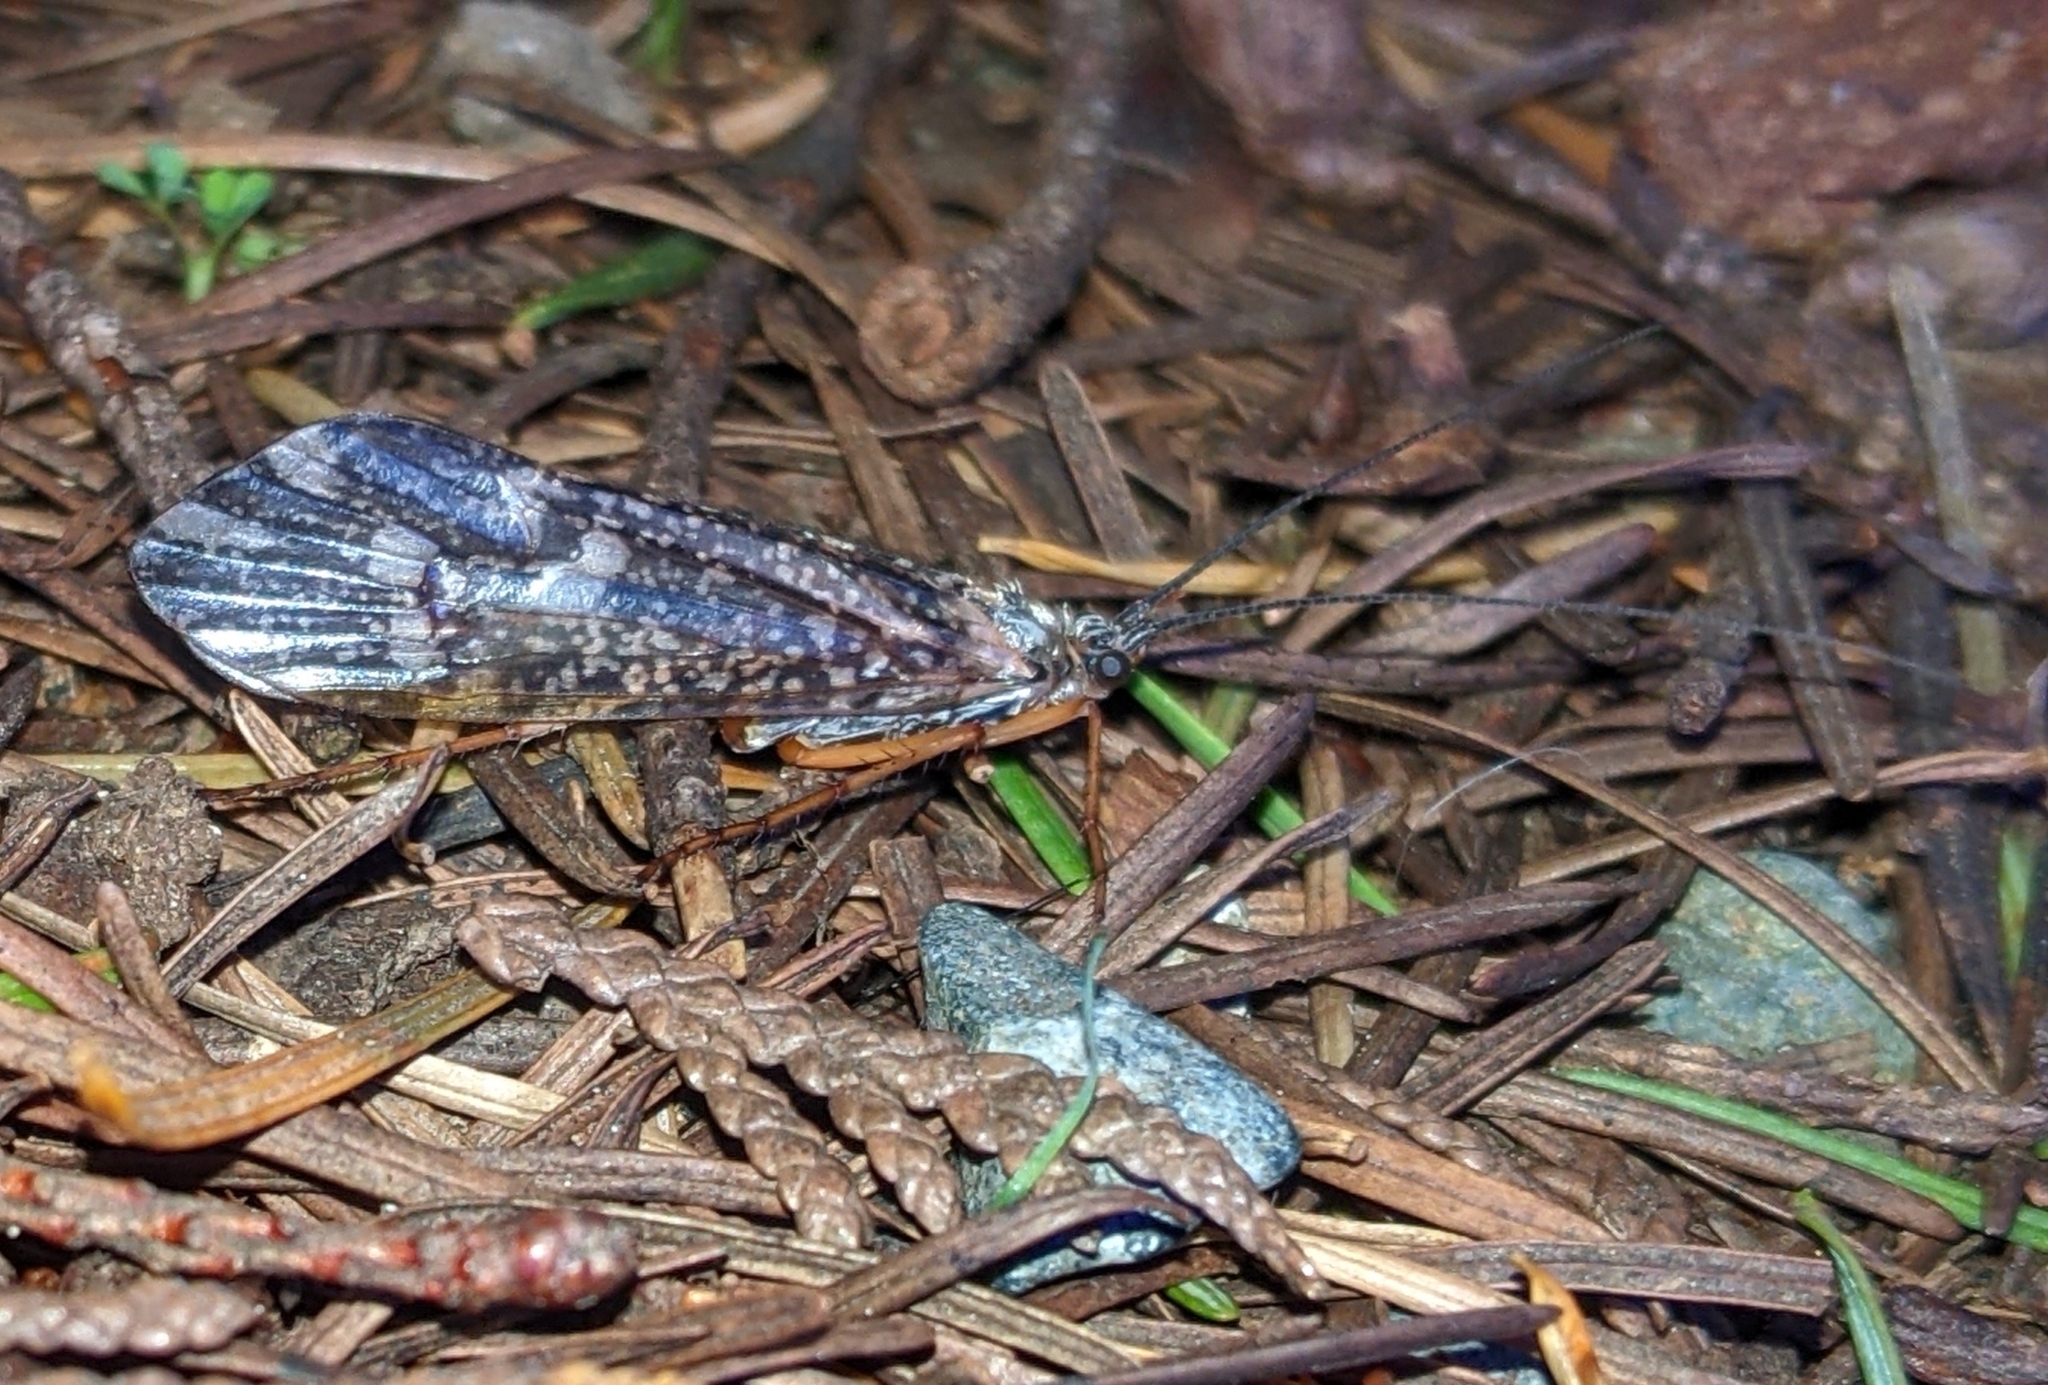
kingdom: Animalia
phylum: Arthropoda
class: Insecta
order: Trichoptera
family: Limnephilidae
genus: Clistoronia
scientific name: Clistoronia magnifica
